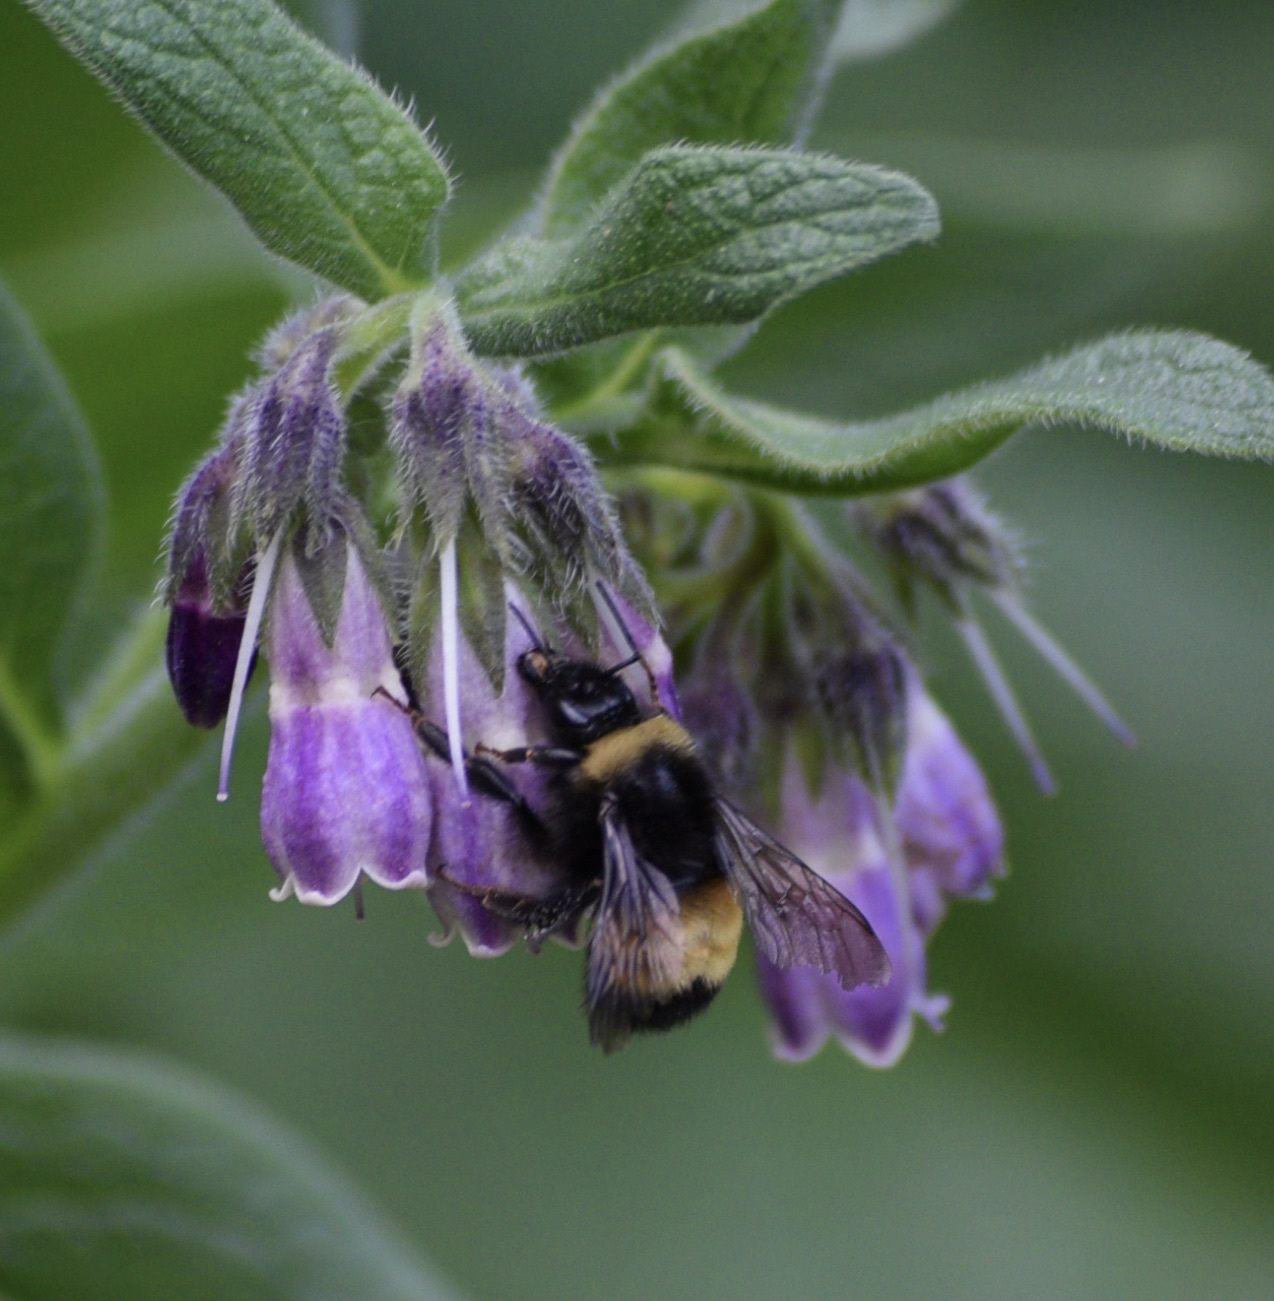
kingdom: Animalia
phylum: Arthropoda
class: Insecta
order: Hymenoptera
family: Apidae
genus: Bombus
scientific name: Bombus terricola
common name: Yellow-banded bumble bee
